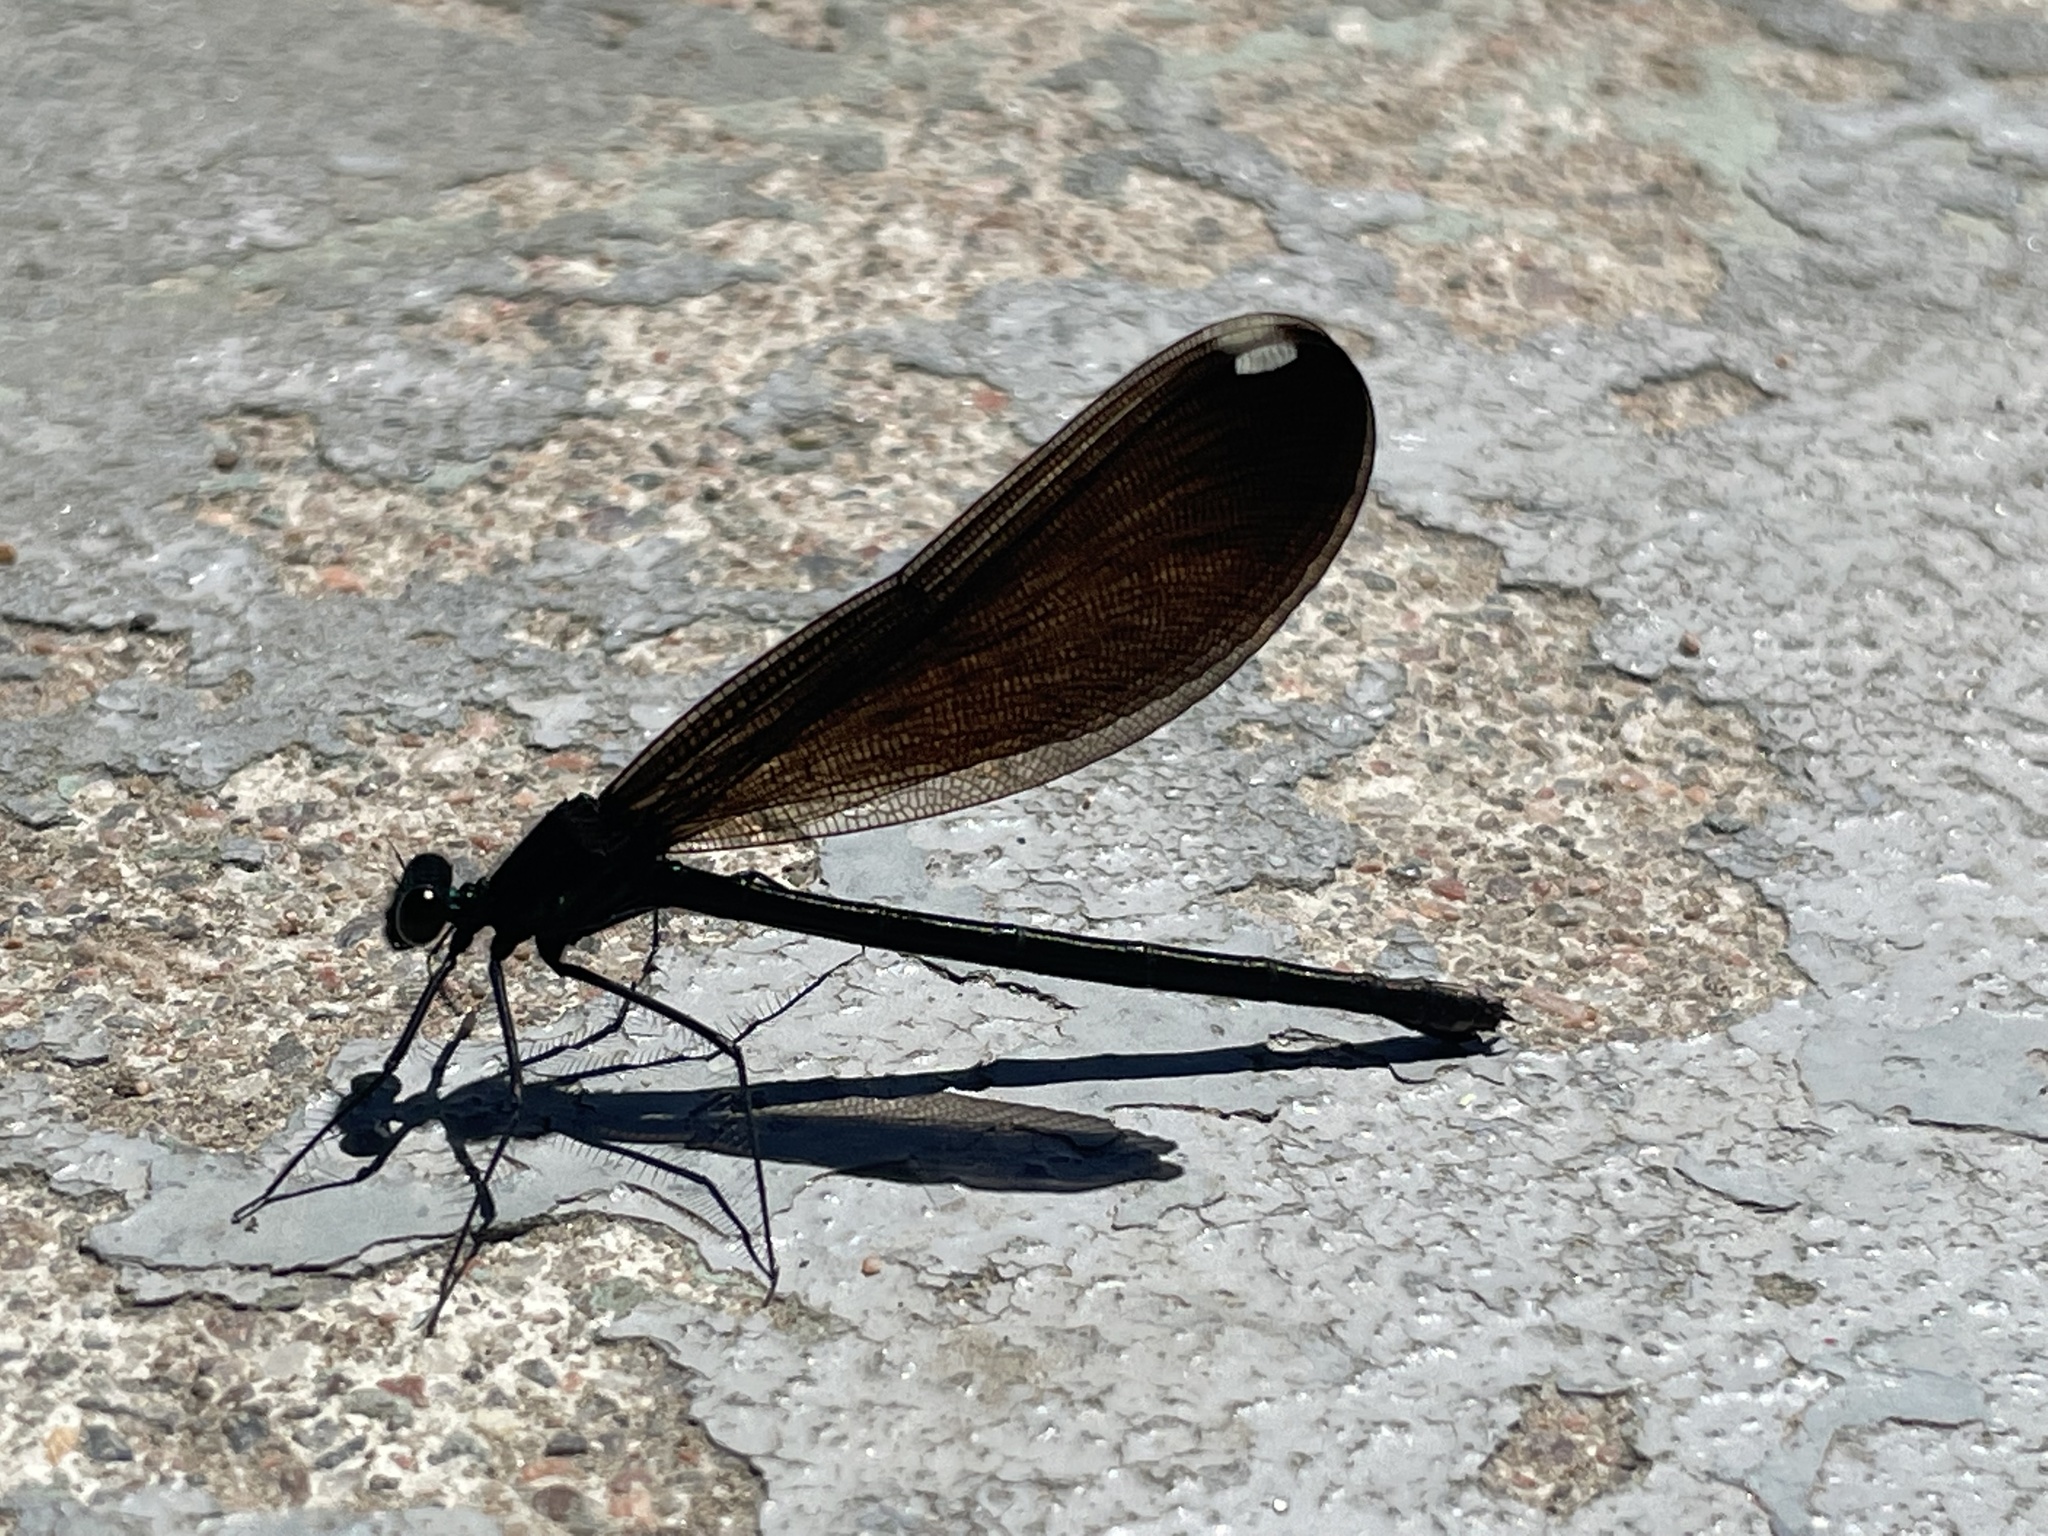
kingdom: Animalia
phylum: Arthropoda
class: Insecta
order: Odonata
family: Calopterygidae
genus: Calopteryx
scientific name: Calopteryx maculata
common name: Ebony jewelwing
